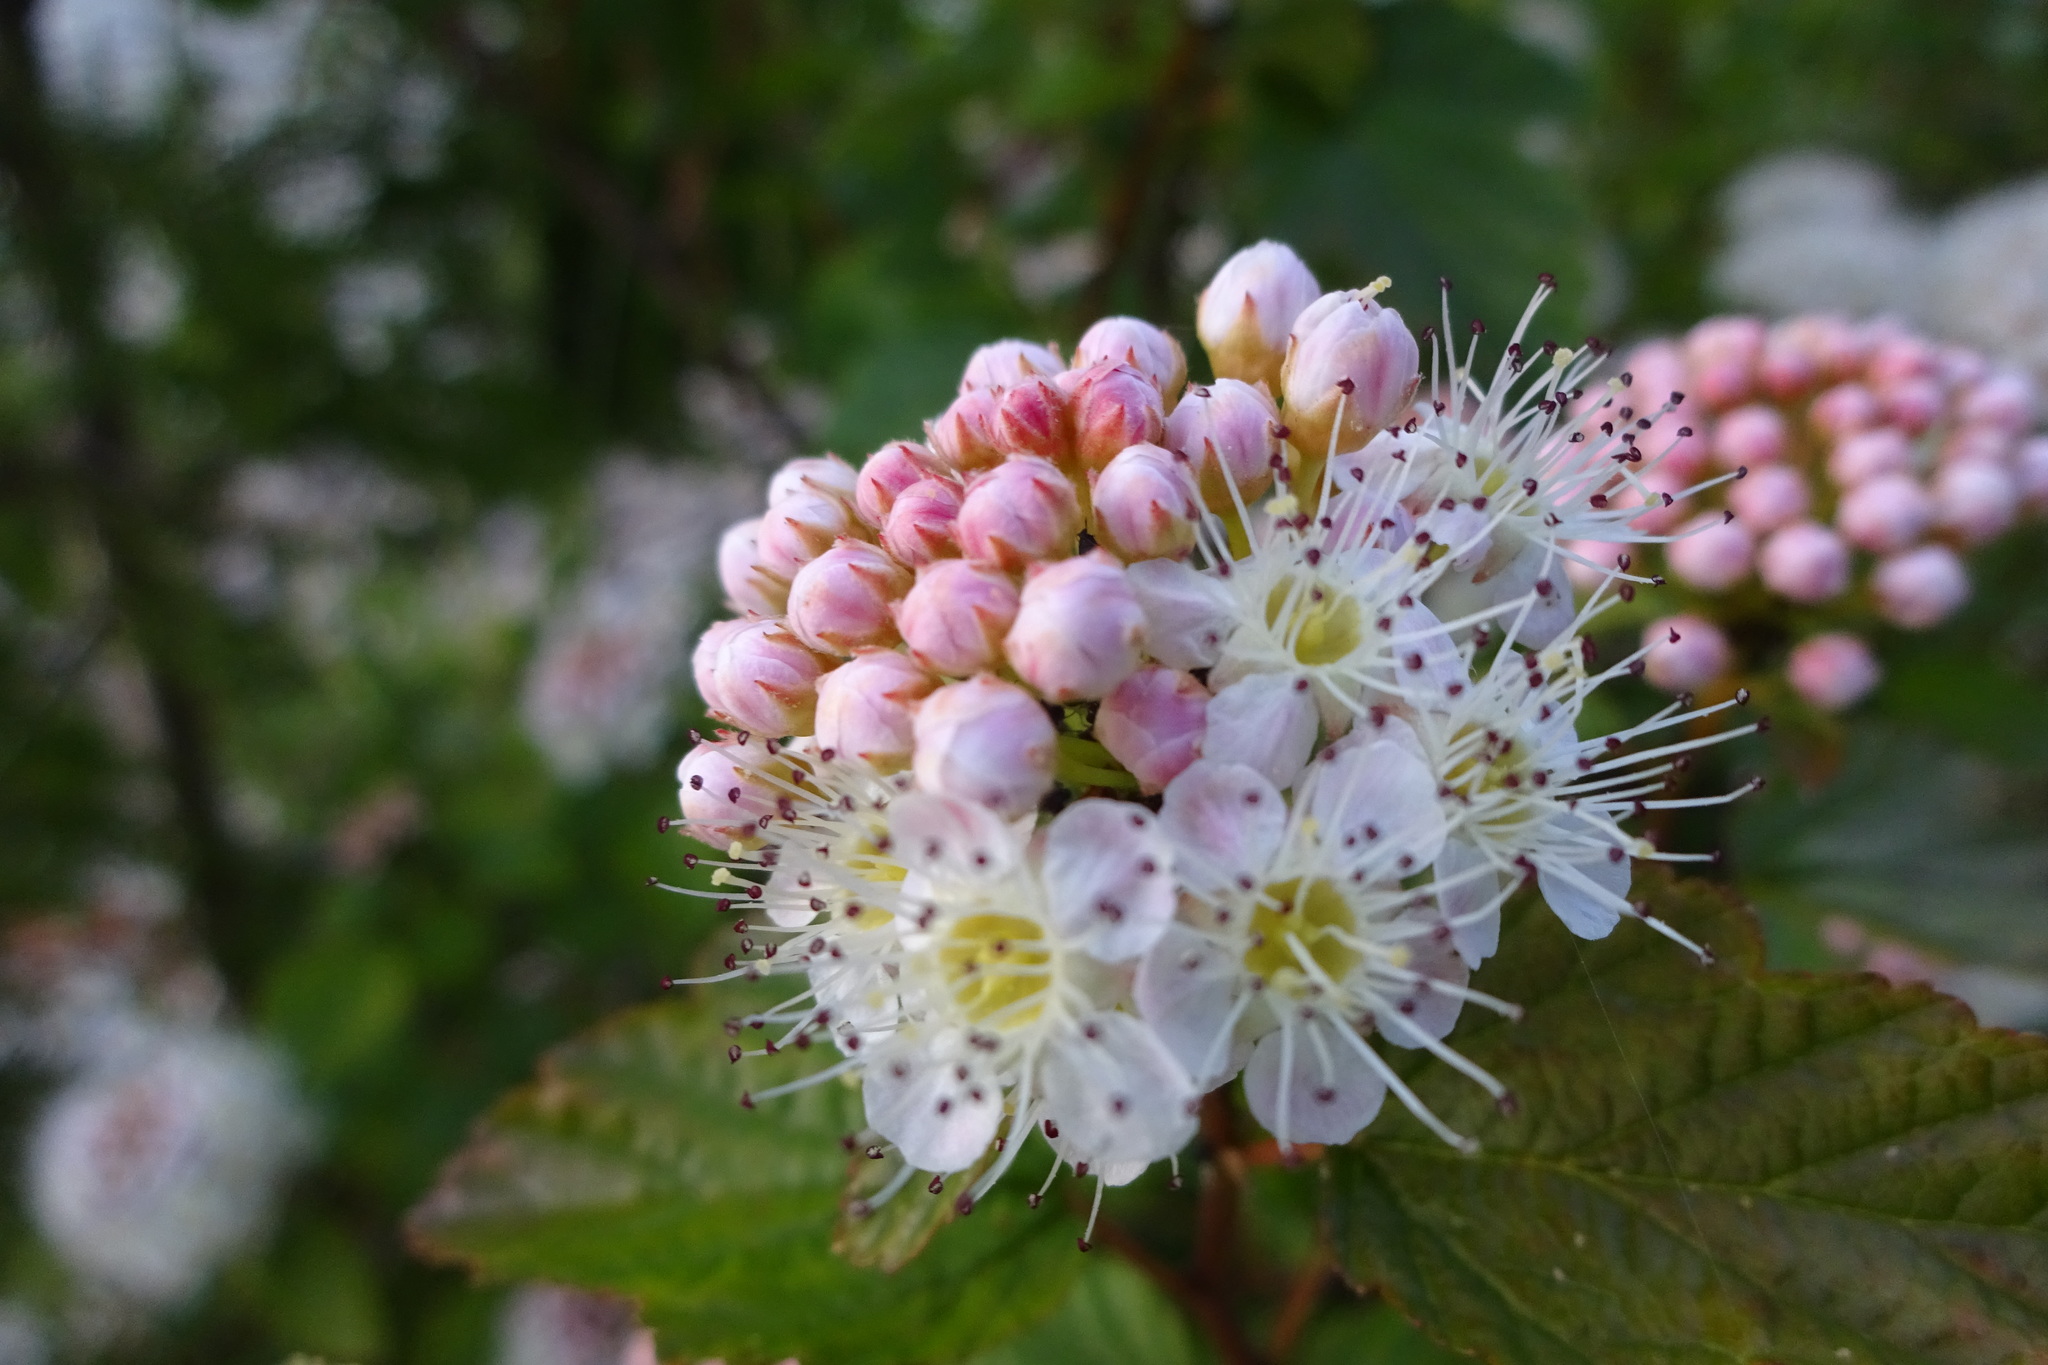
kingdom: Plantae
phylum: Tracheophyta
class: Magnoliopsida
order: Rosales
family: Rosaceae
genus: Physocarpus
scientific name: Physocarpus opulifolius
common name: Ninebark
